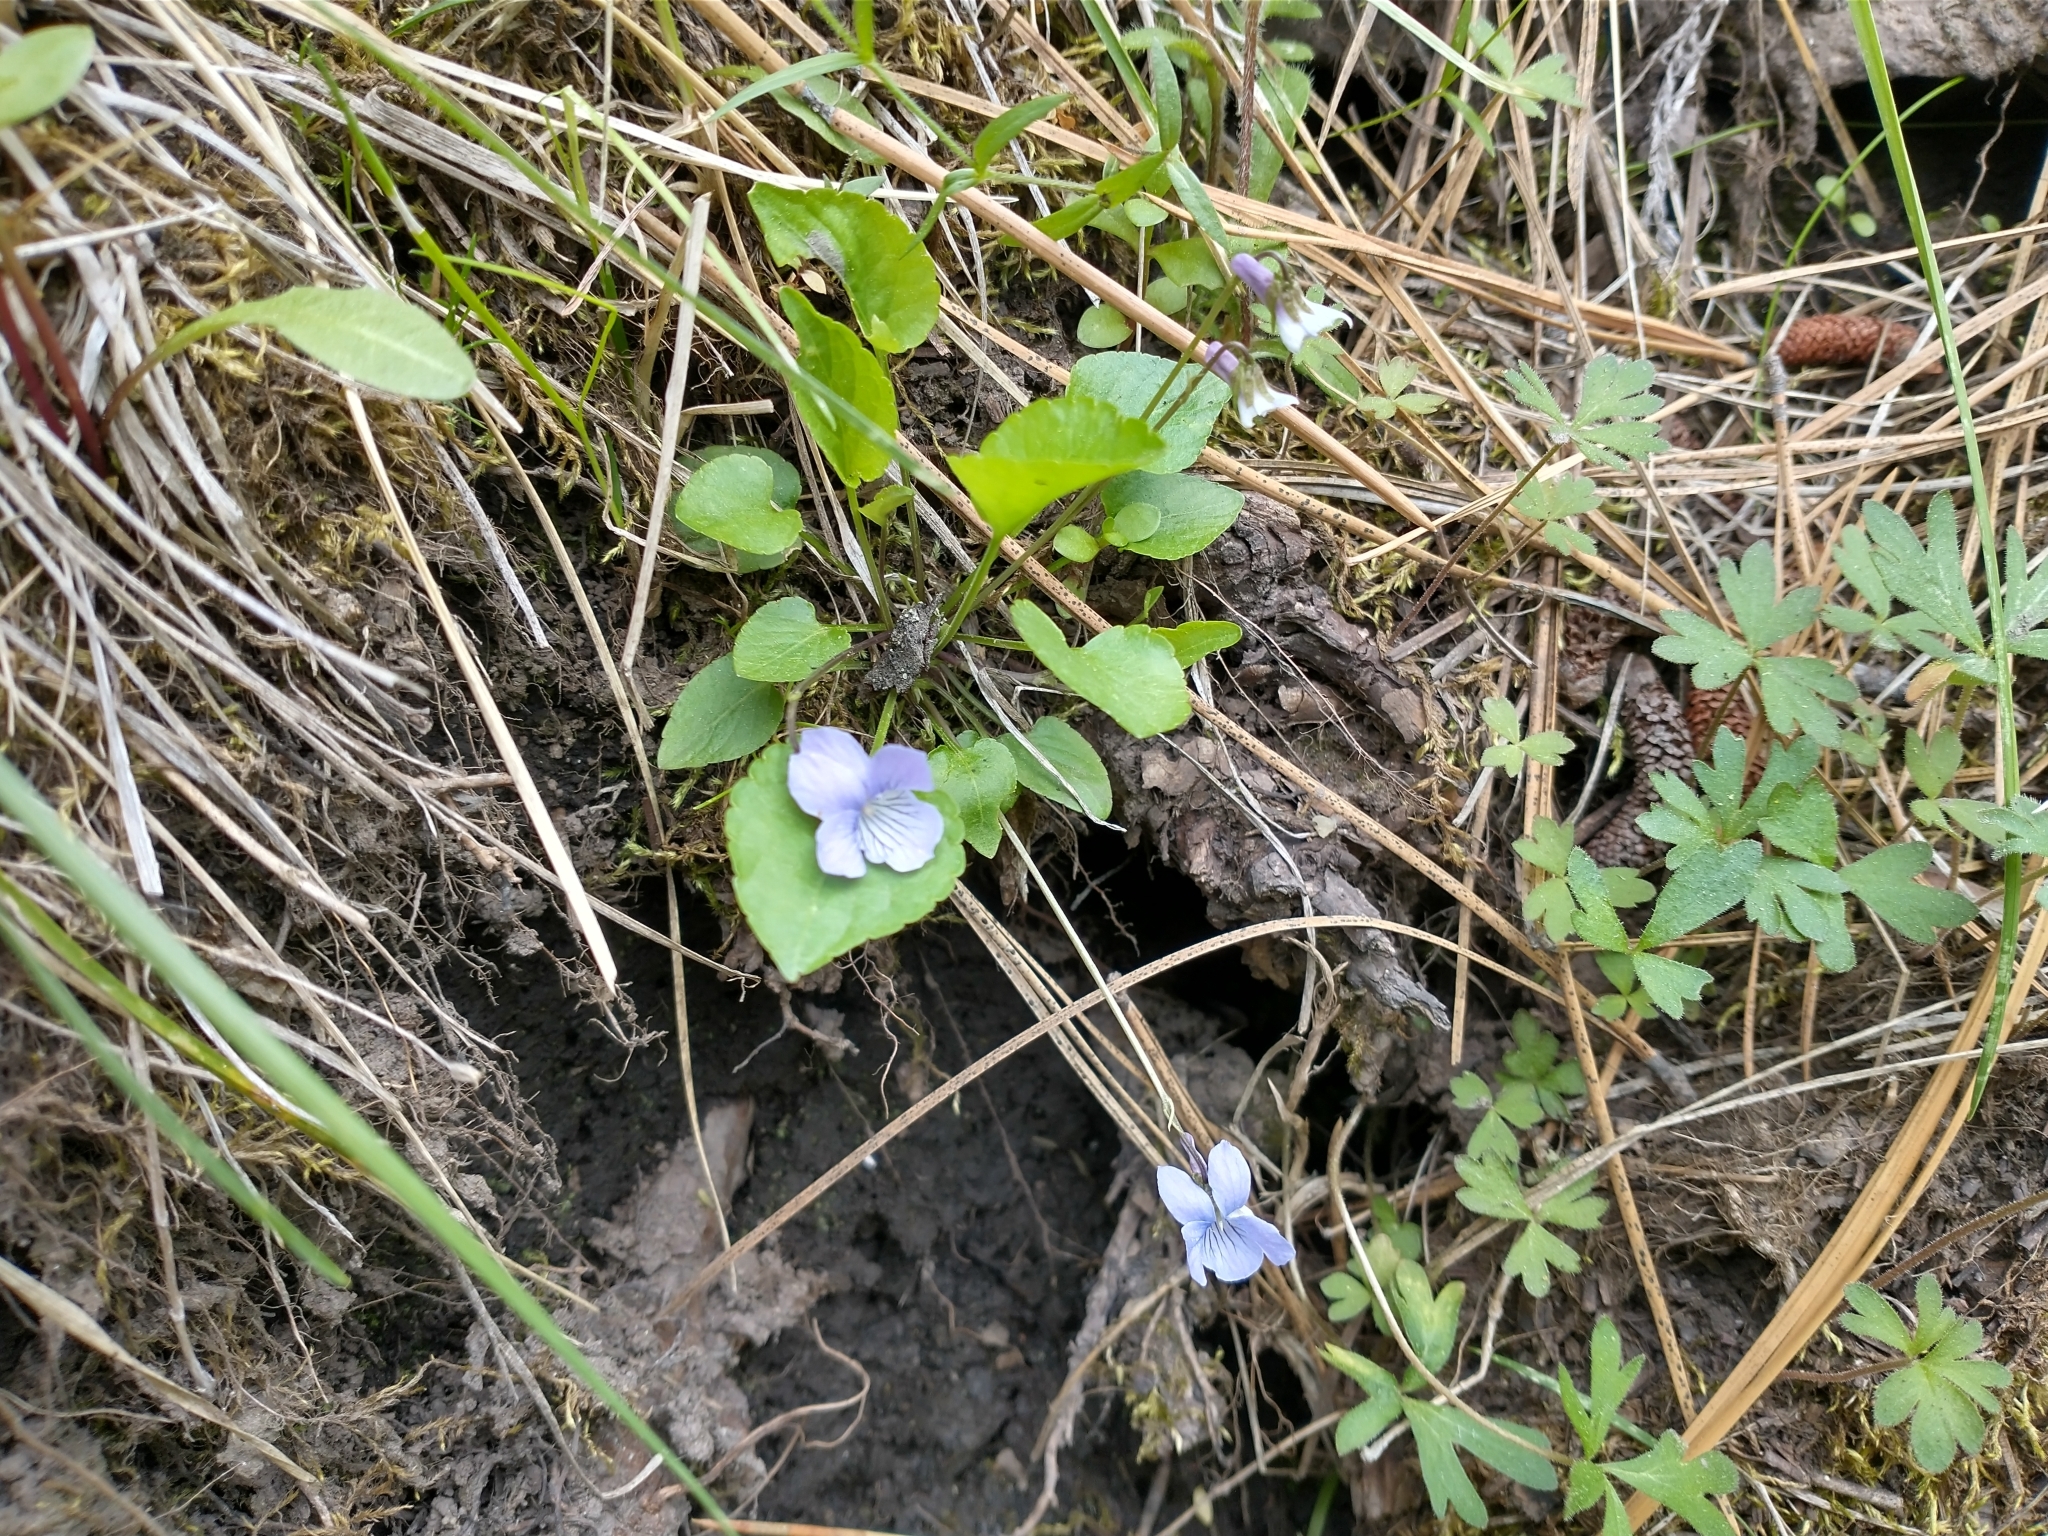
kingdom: Plantae
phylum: Tracheophyta
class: Magnoliopsida
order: Malpighiales
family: Violaceae
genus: Viola
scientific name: Viola adunca
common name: Sand violet
